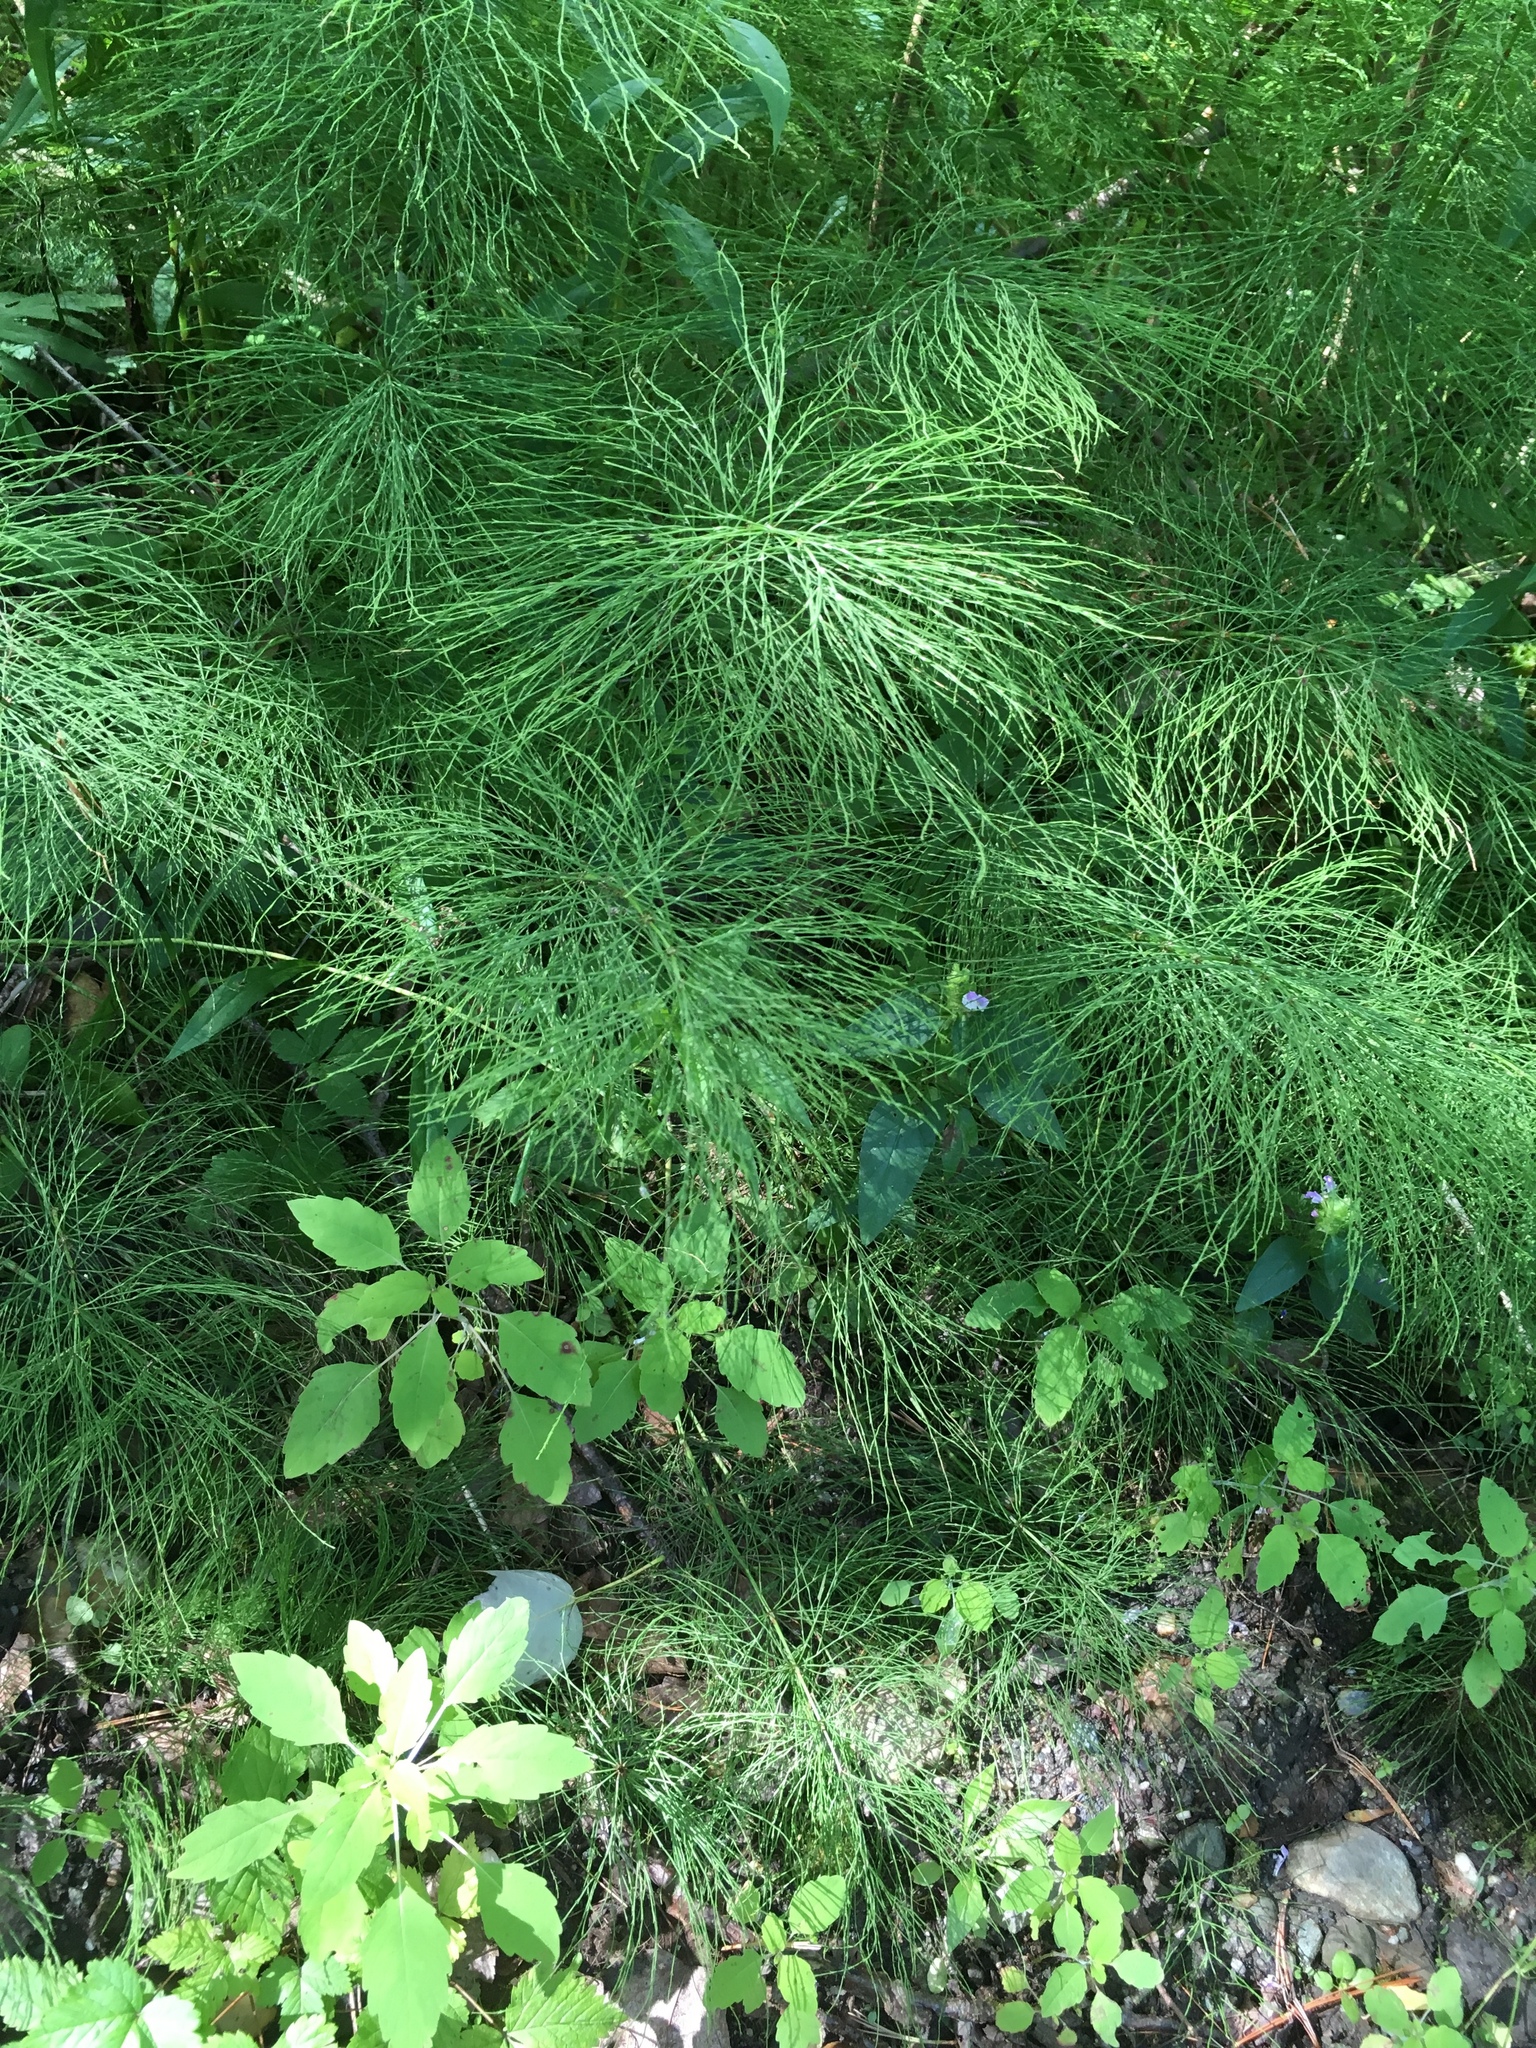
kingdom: Plantae
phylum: Tracheophyta
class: Polypodiopsida
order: Equisetales
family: Equisetaceae
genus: Equisetum
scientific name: Equisetum sylvaticum
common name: Wood horsetail
